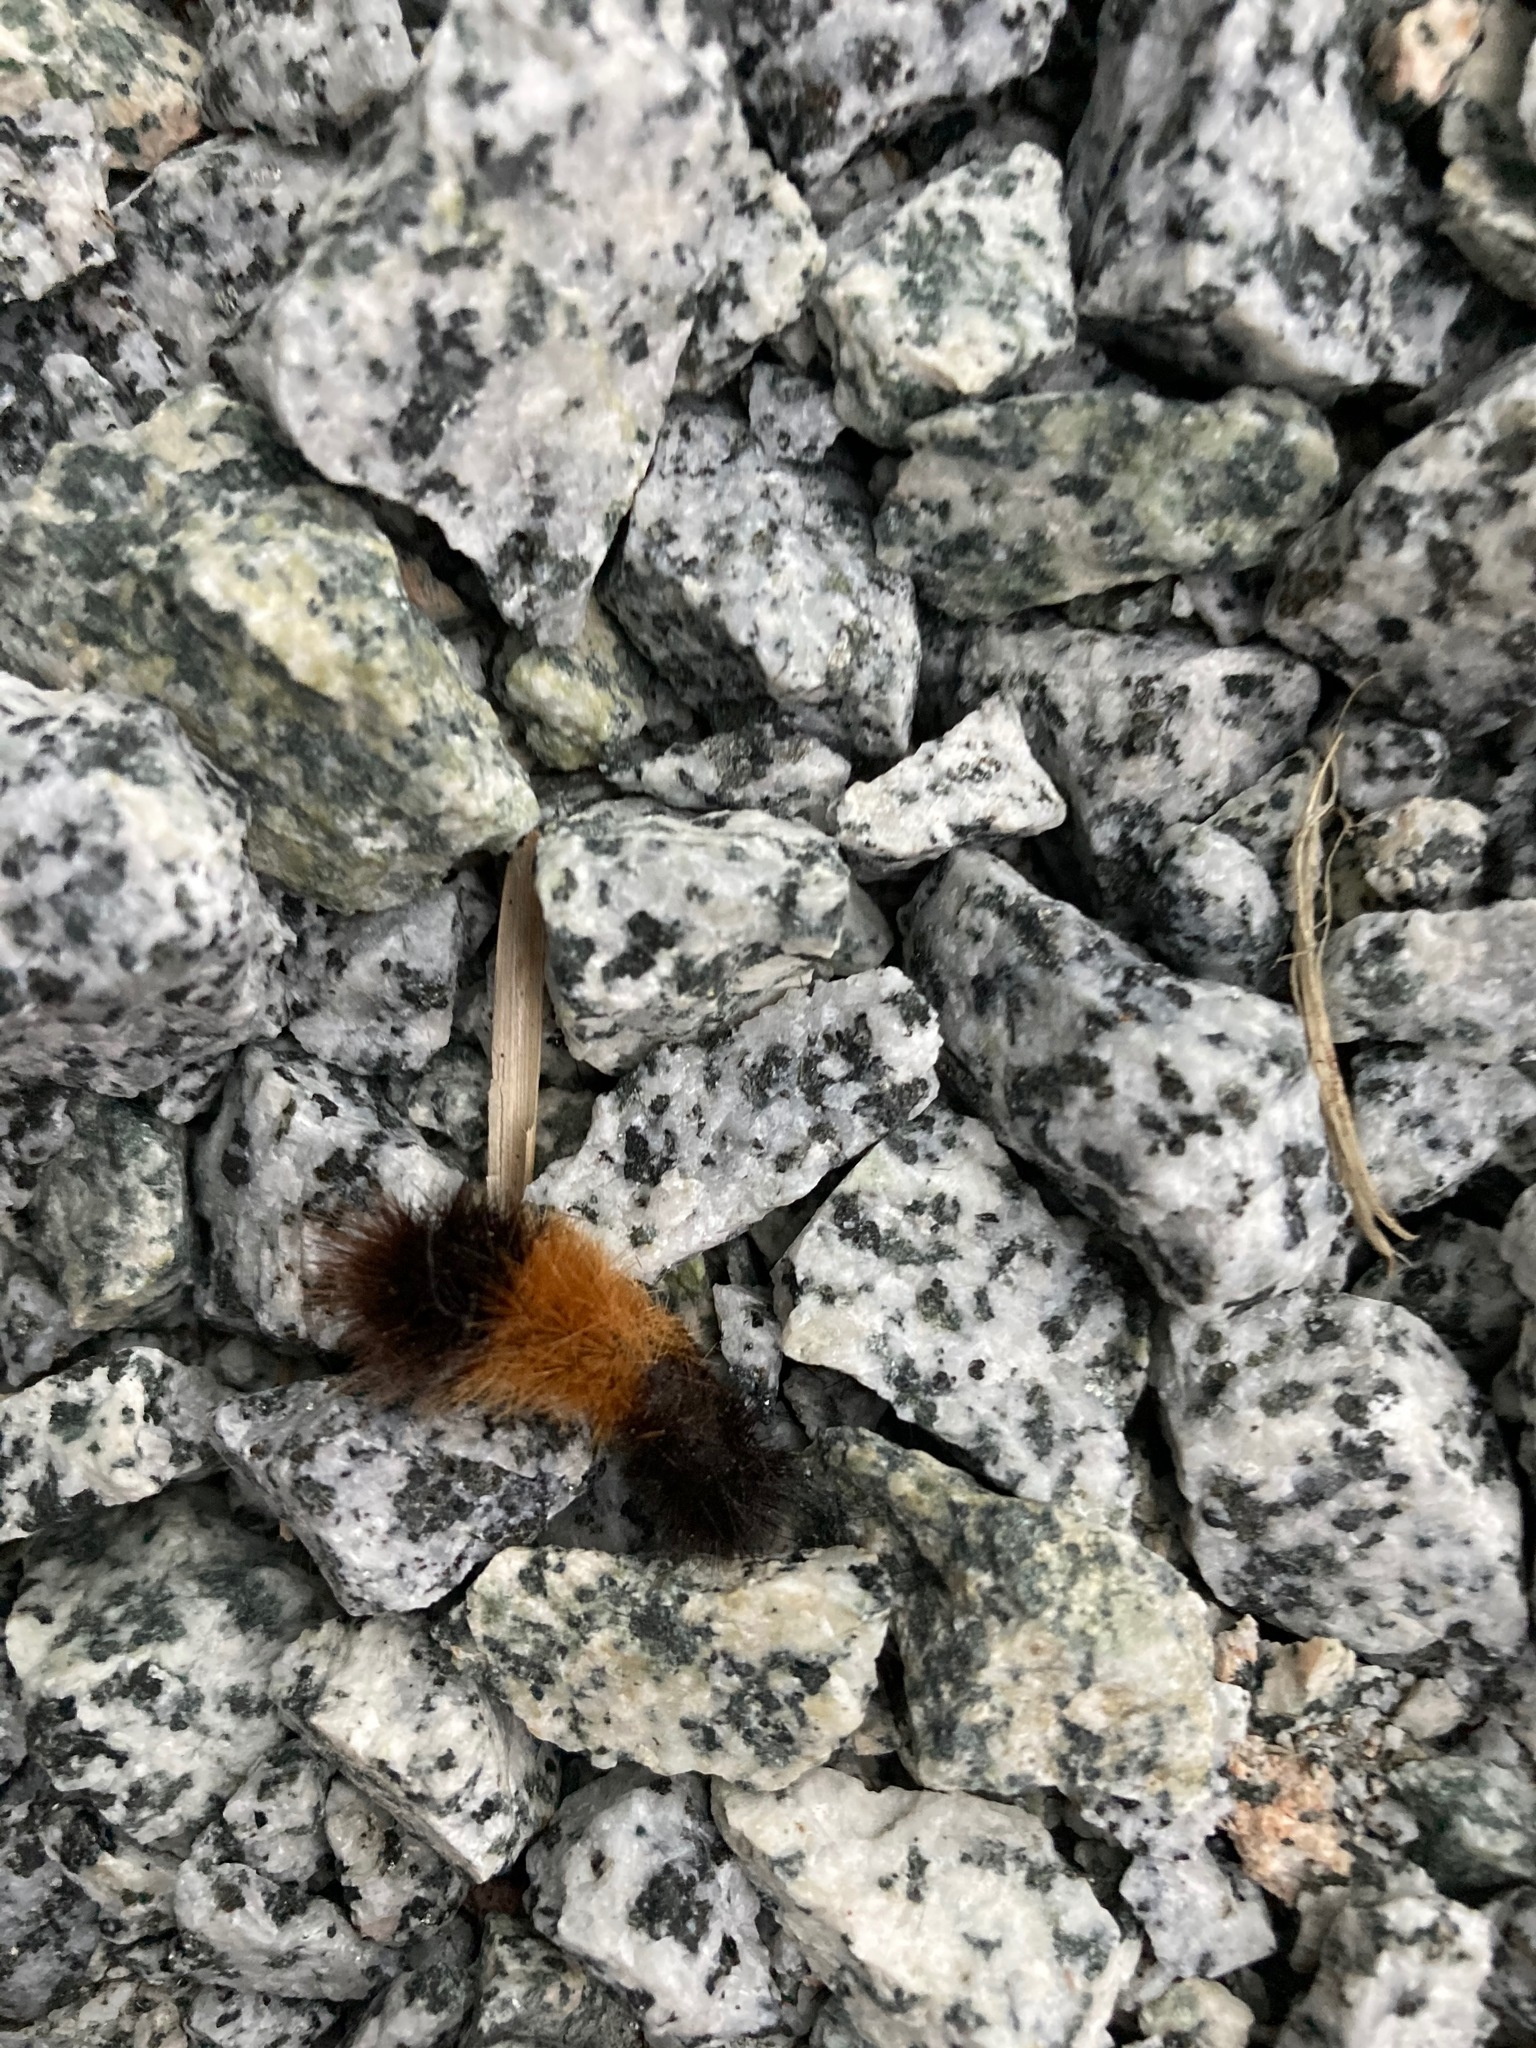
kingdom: Animalia
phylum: Arthropoda
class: Insecta
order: Lepidoptera
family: Erebidae
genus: Pyrrharctia
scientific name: Pyrrharctia isabella
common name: Isabella tiger moth
